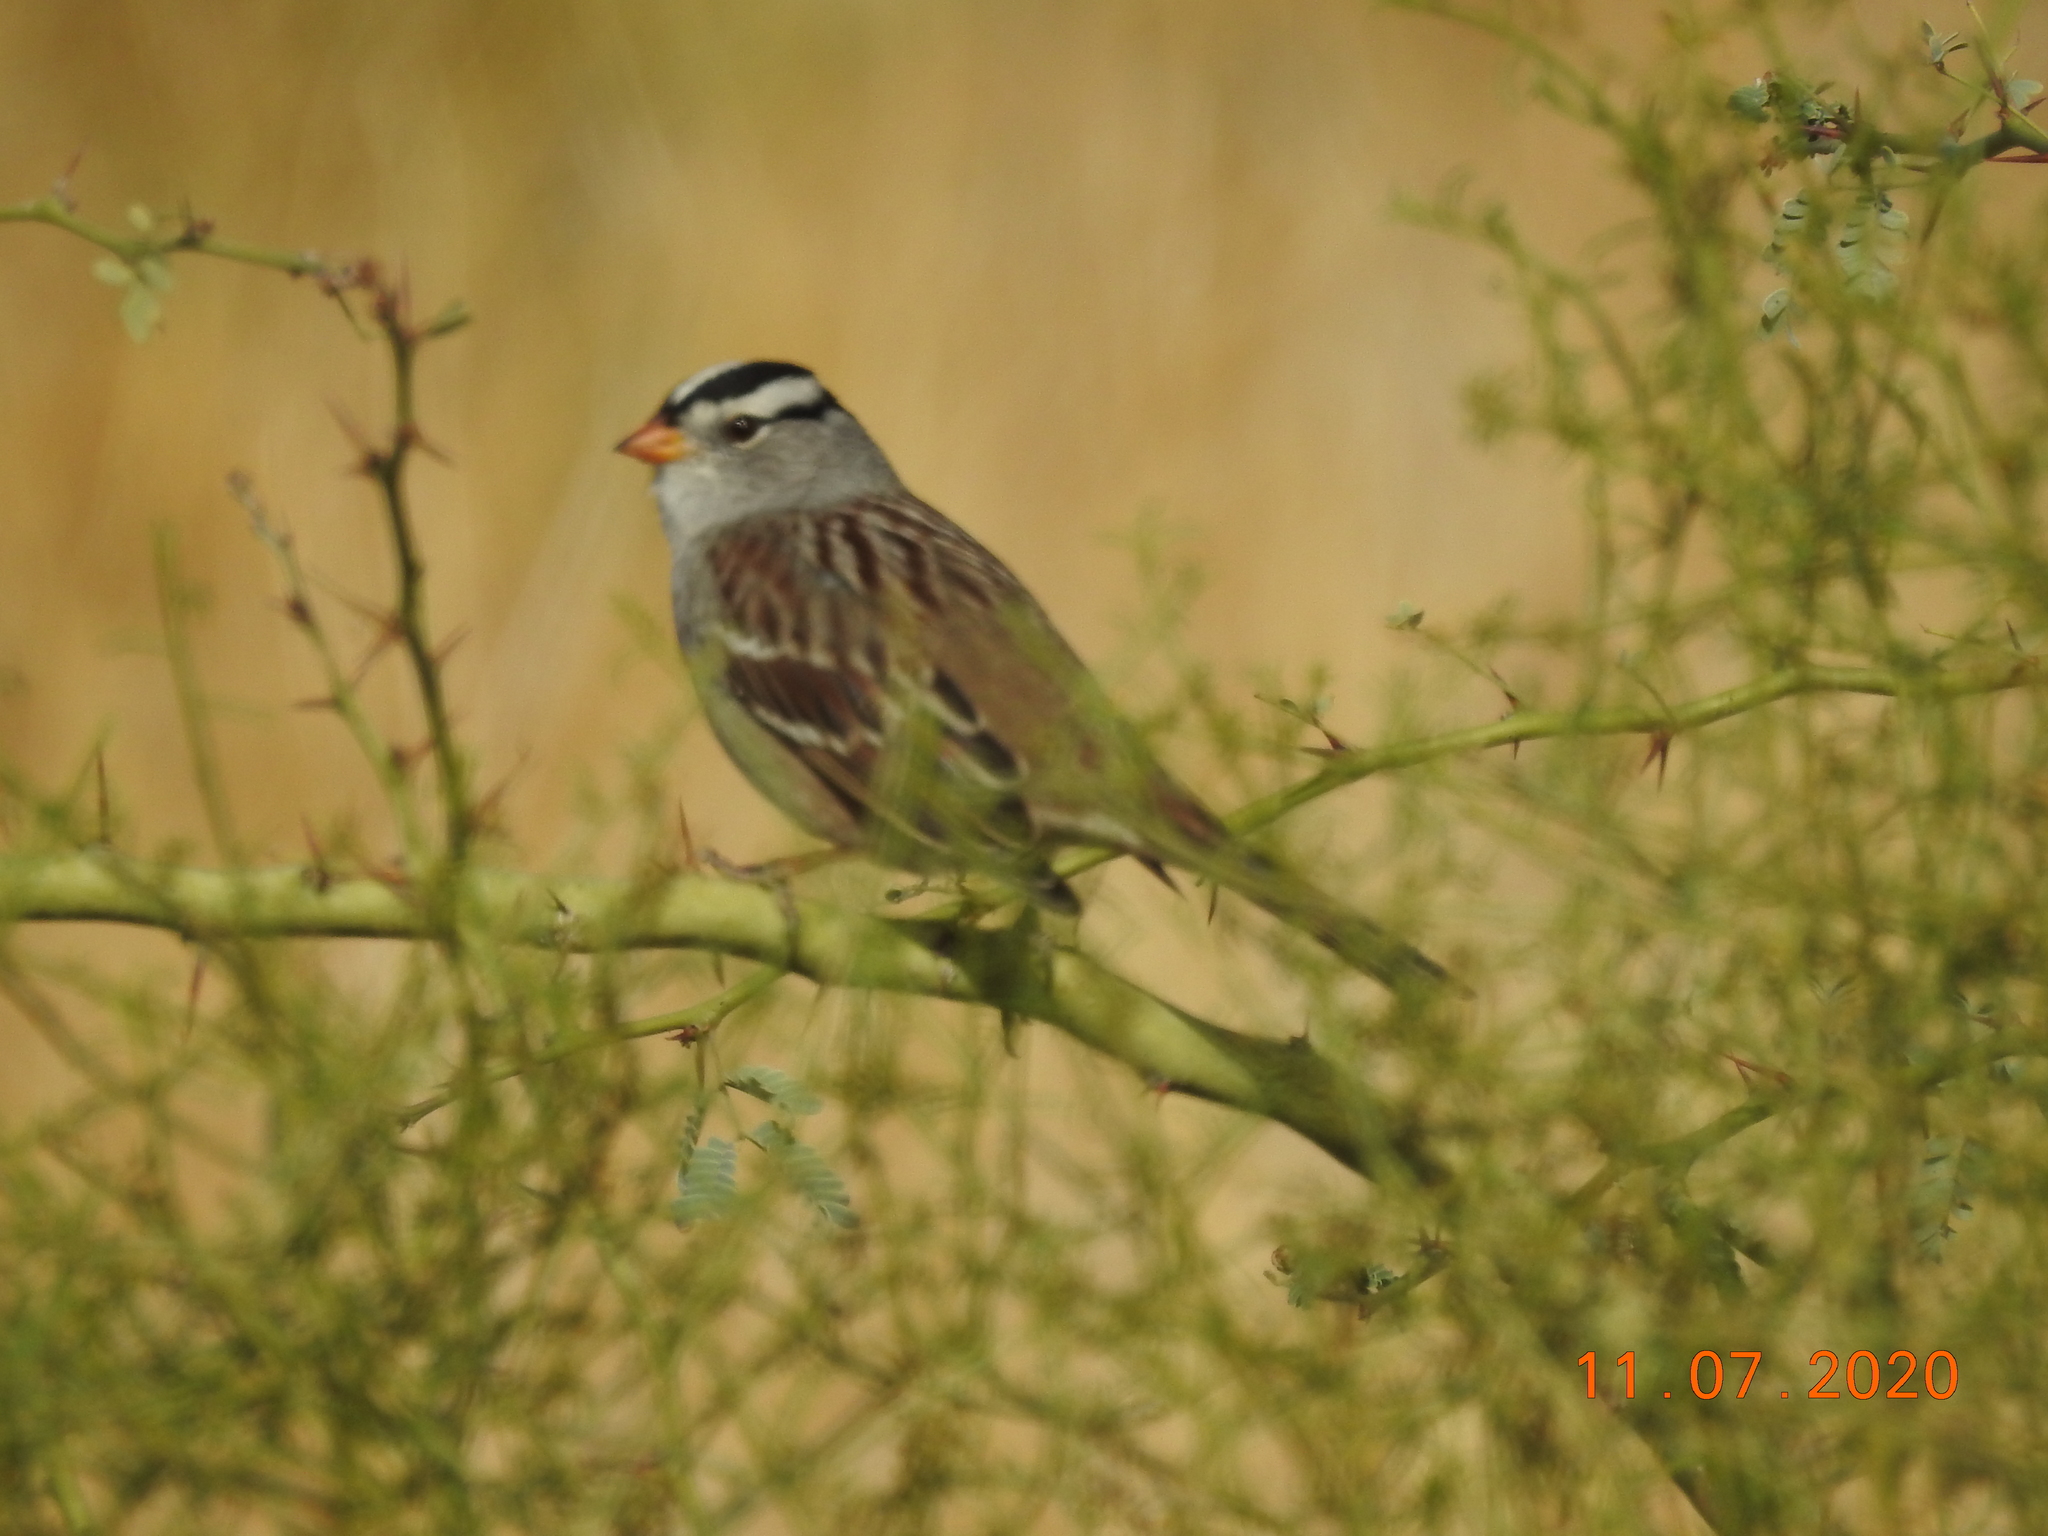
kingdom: Animalia
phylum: Chordata
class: Aves
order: Passeriformes
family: Passerellidae
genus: Zonotrichia
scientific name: Zonotrichia leucophrys
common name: White-crowned sparrow
